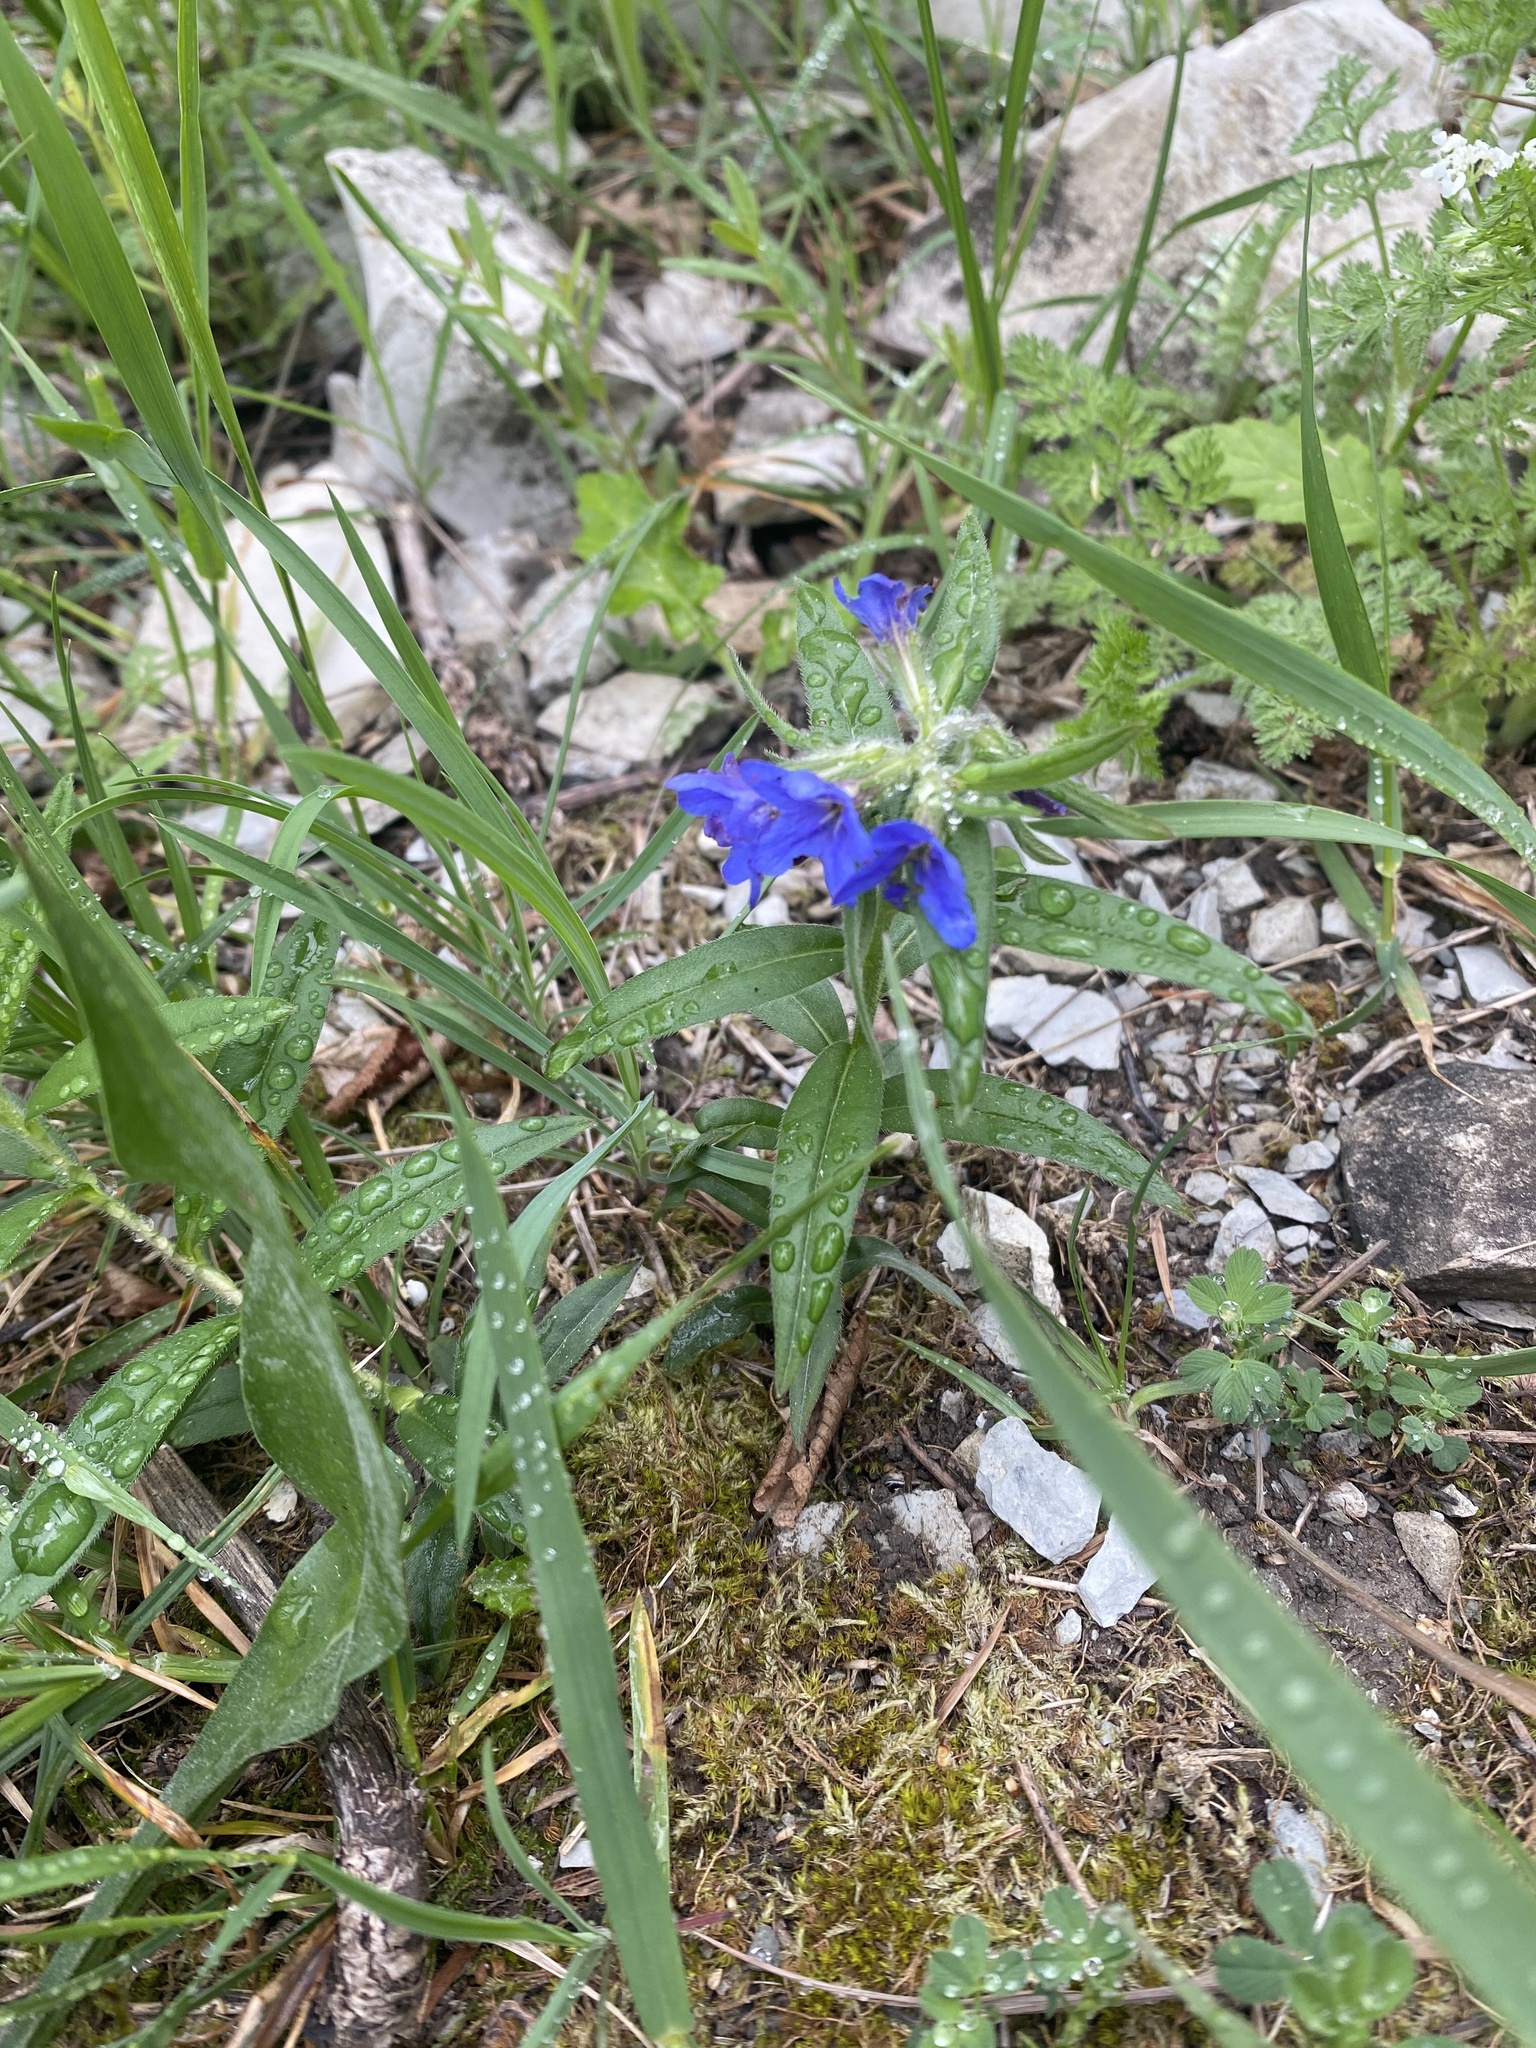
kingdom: Plantae
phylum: Tracheophyta
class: Magnoliopsida
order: Boraginales
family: Boraginaceae
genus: Aegonychon
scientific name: Aegonychon purpurocaeruleum
